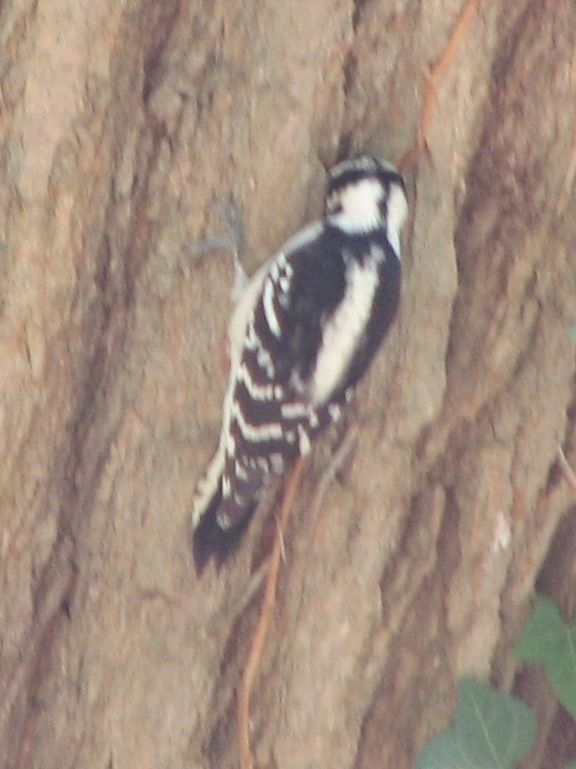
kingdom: Animalia
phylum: Chordata
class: Aves
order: Piciformes
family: Picidae
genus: Dryobates
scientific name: Dryobates pubescens
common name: Downy woodpecker
